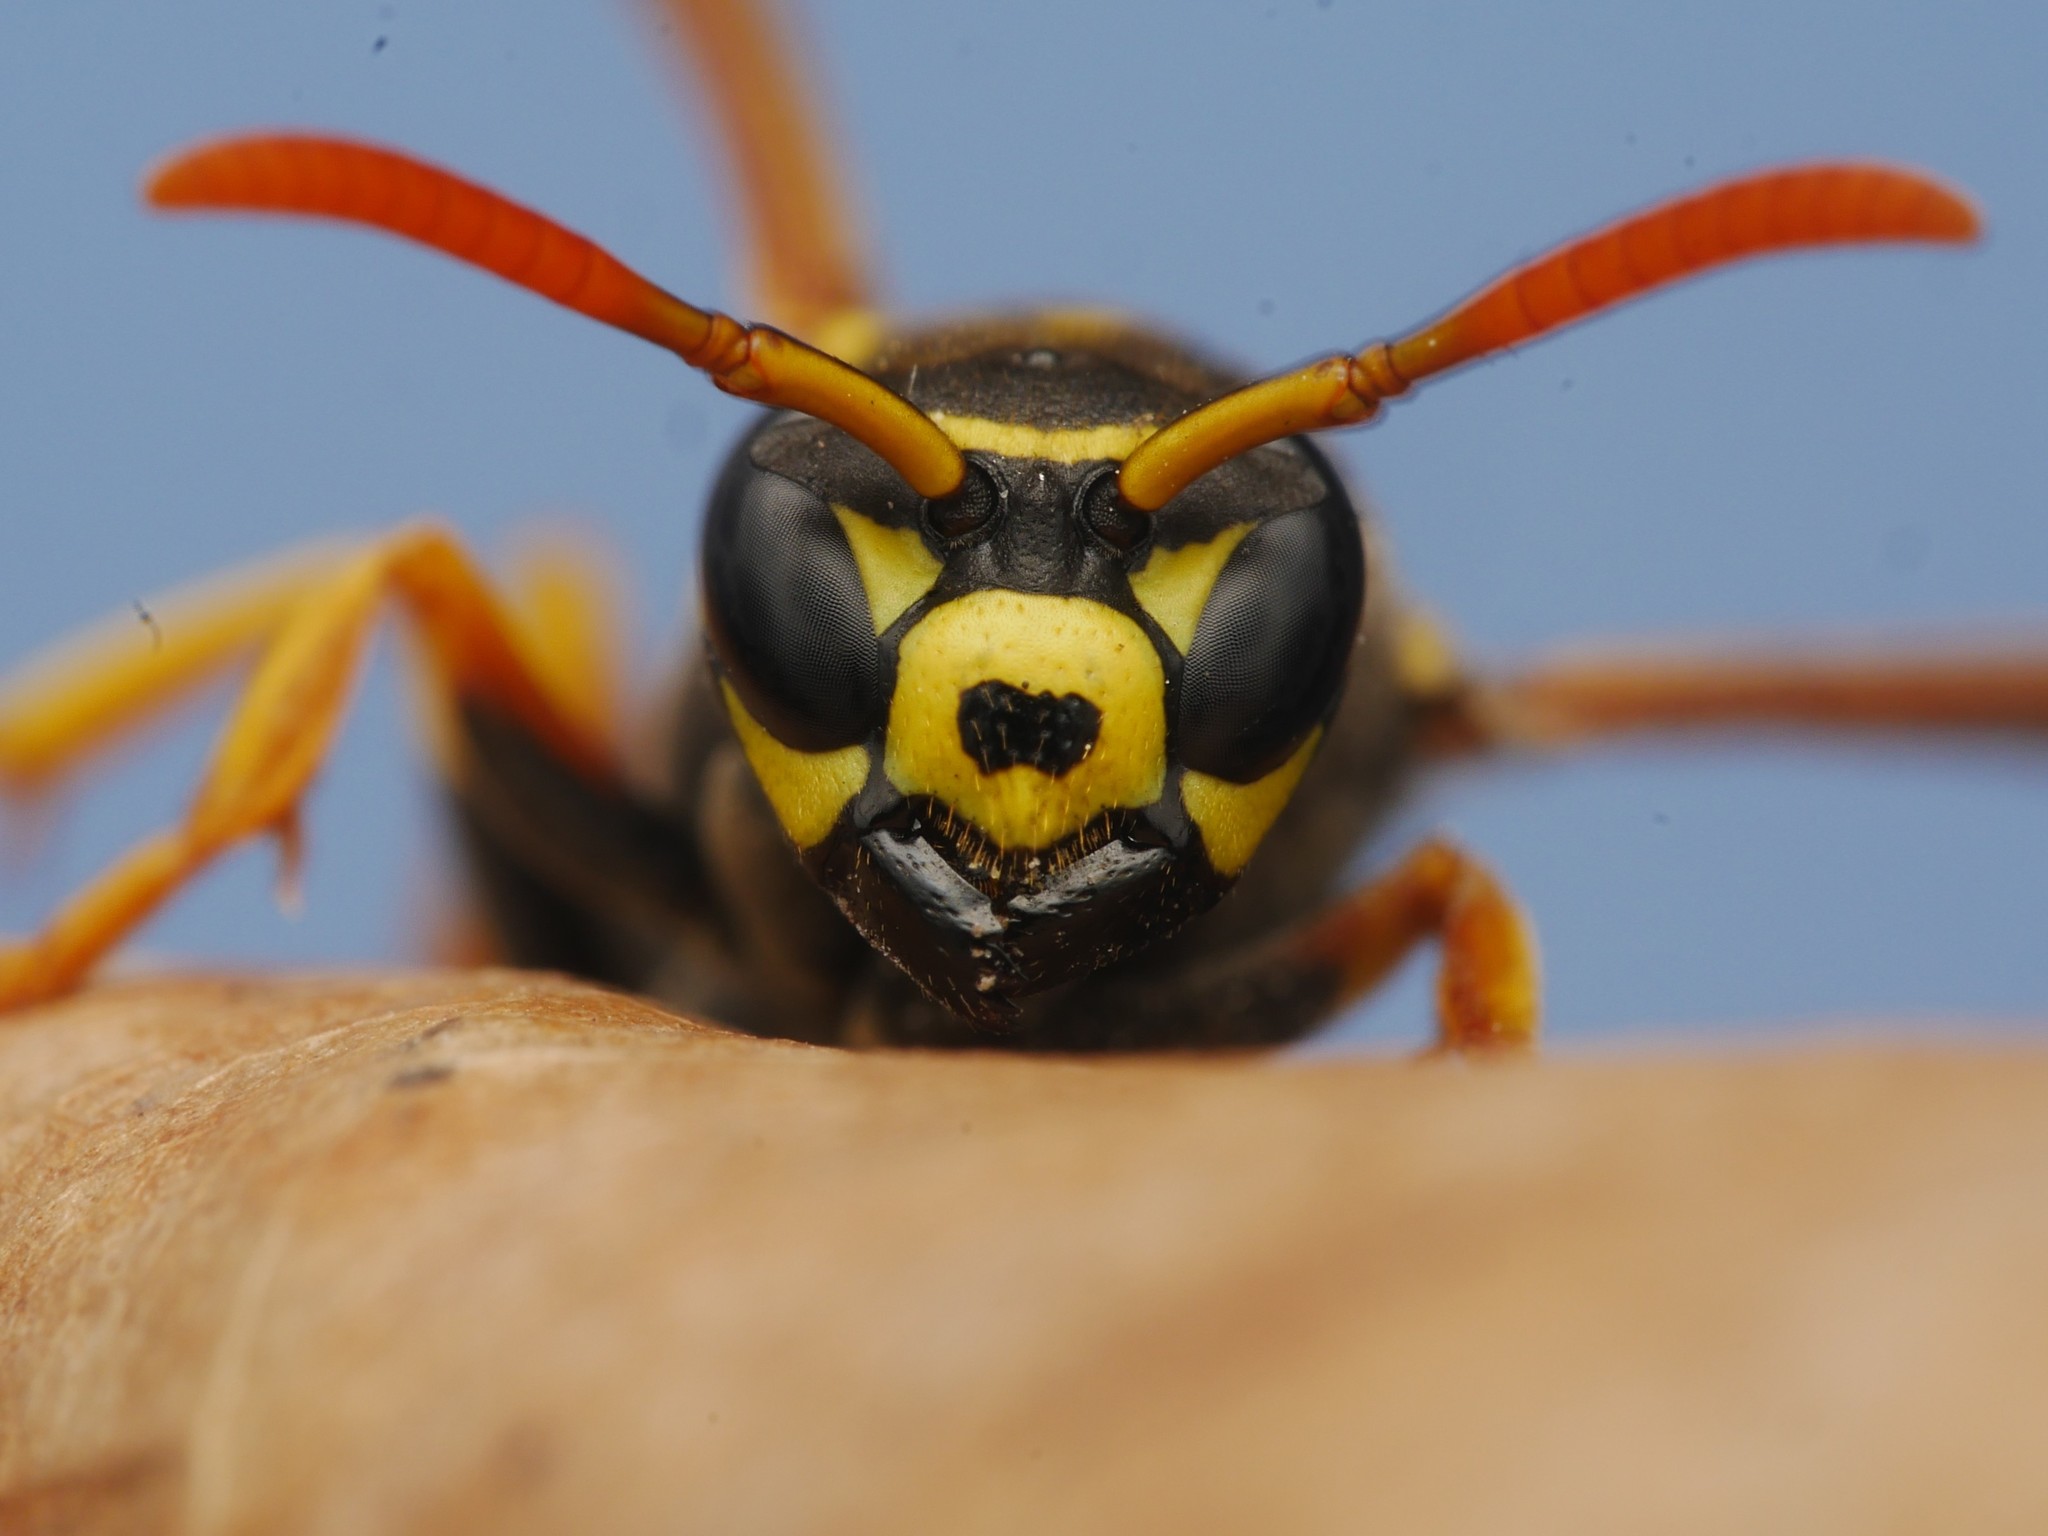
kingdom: Animalia
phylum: Arthropoda
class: Insecta
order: Hymenoptera
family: Eumenidae
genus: Polistes
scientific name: Polistes dominula
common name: Paper wasp
